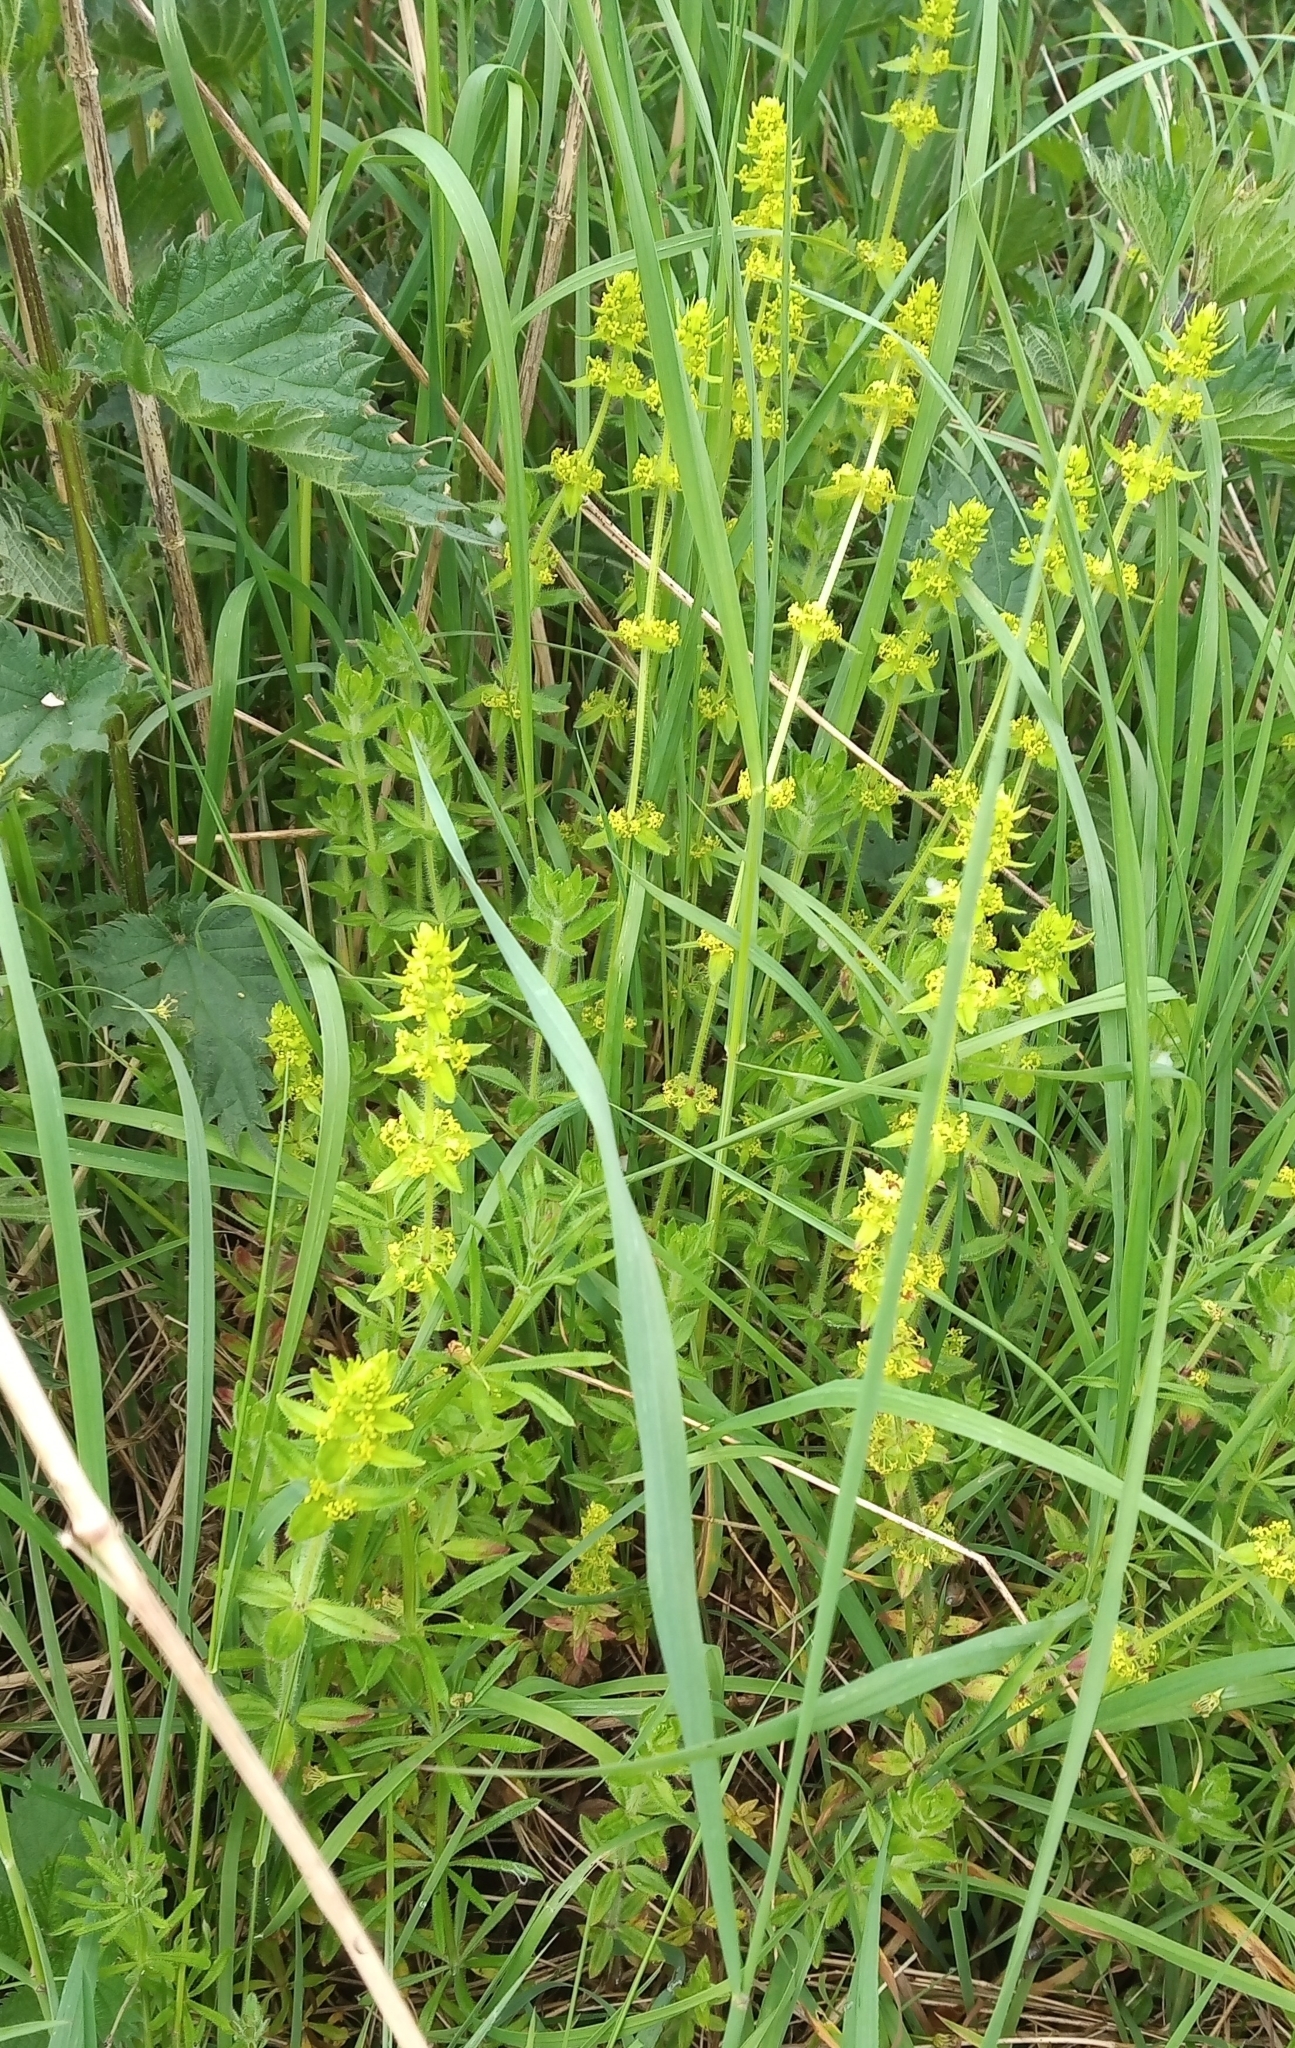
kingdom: Plantae
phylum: Tracheophyta
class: Magnoliopsida
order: Gentianales
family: Rubiaceae
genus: Cruciata
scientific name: Cruciata laevipes
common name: Crosswort
